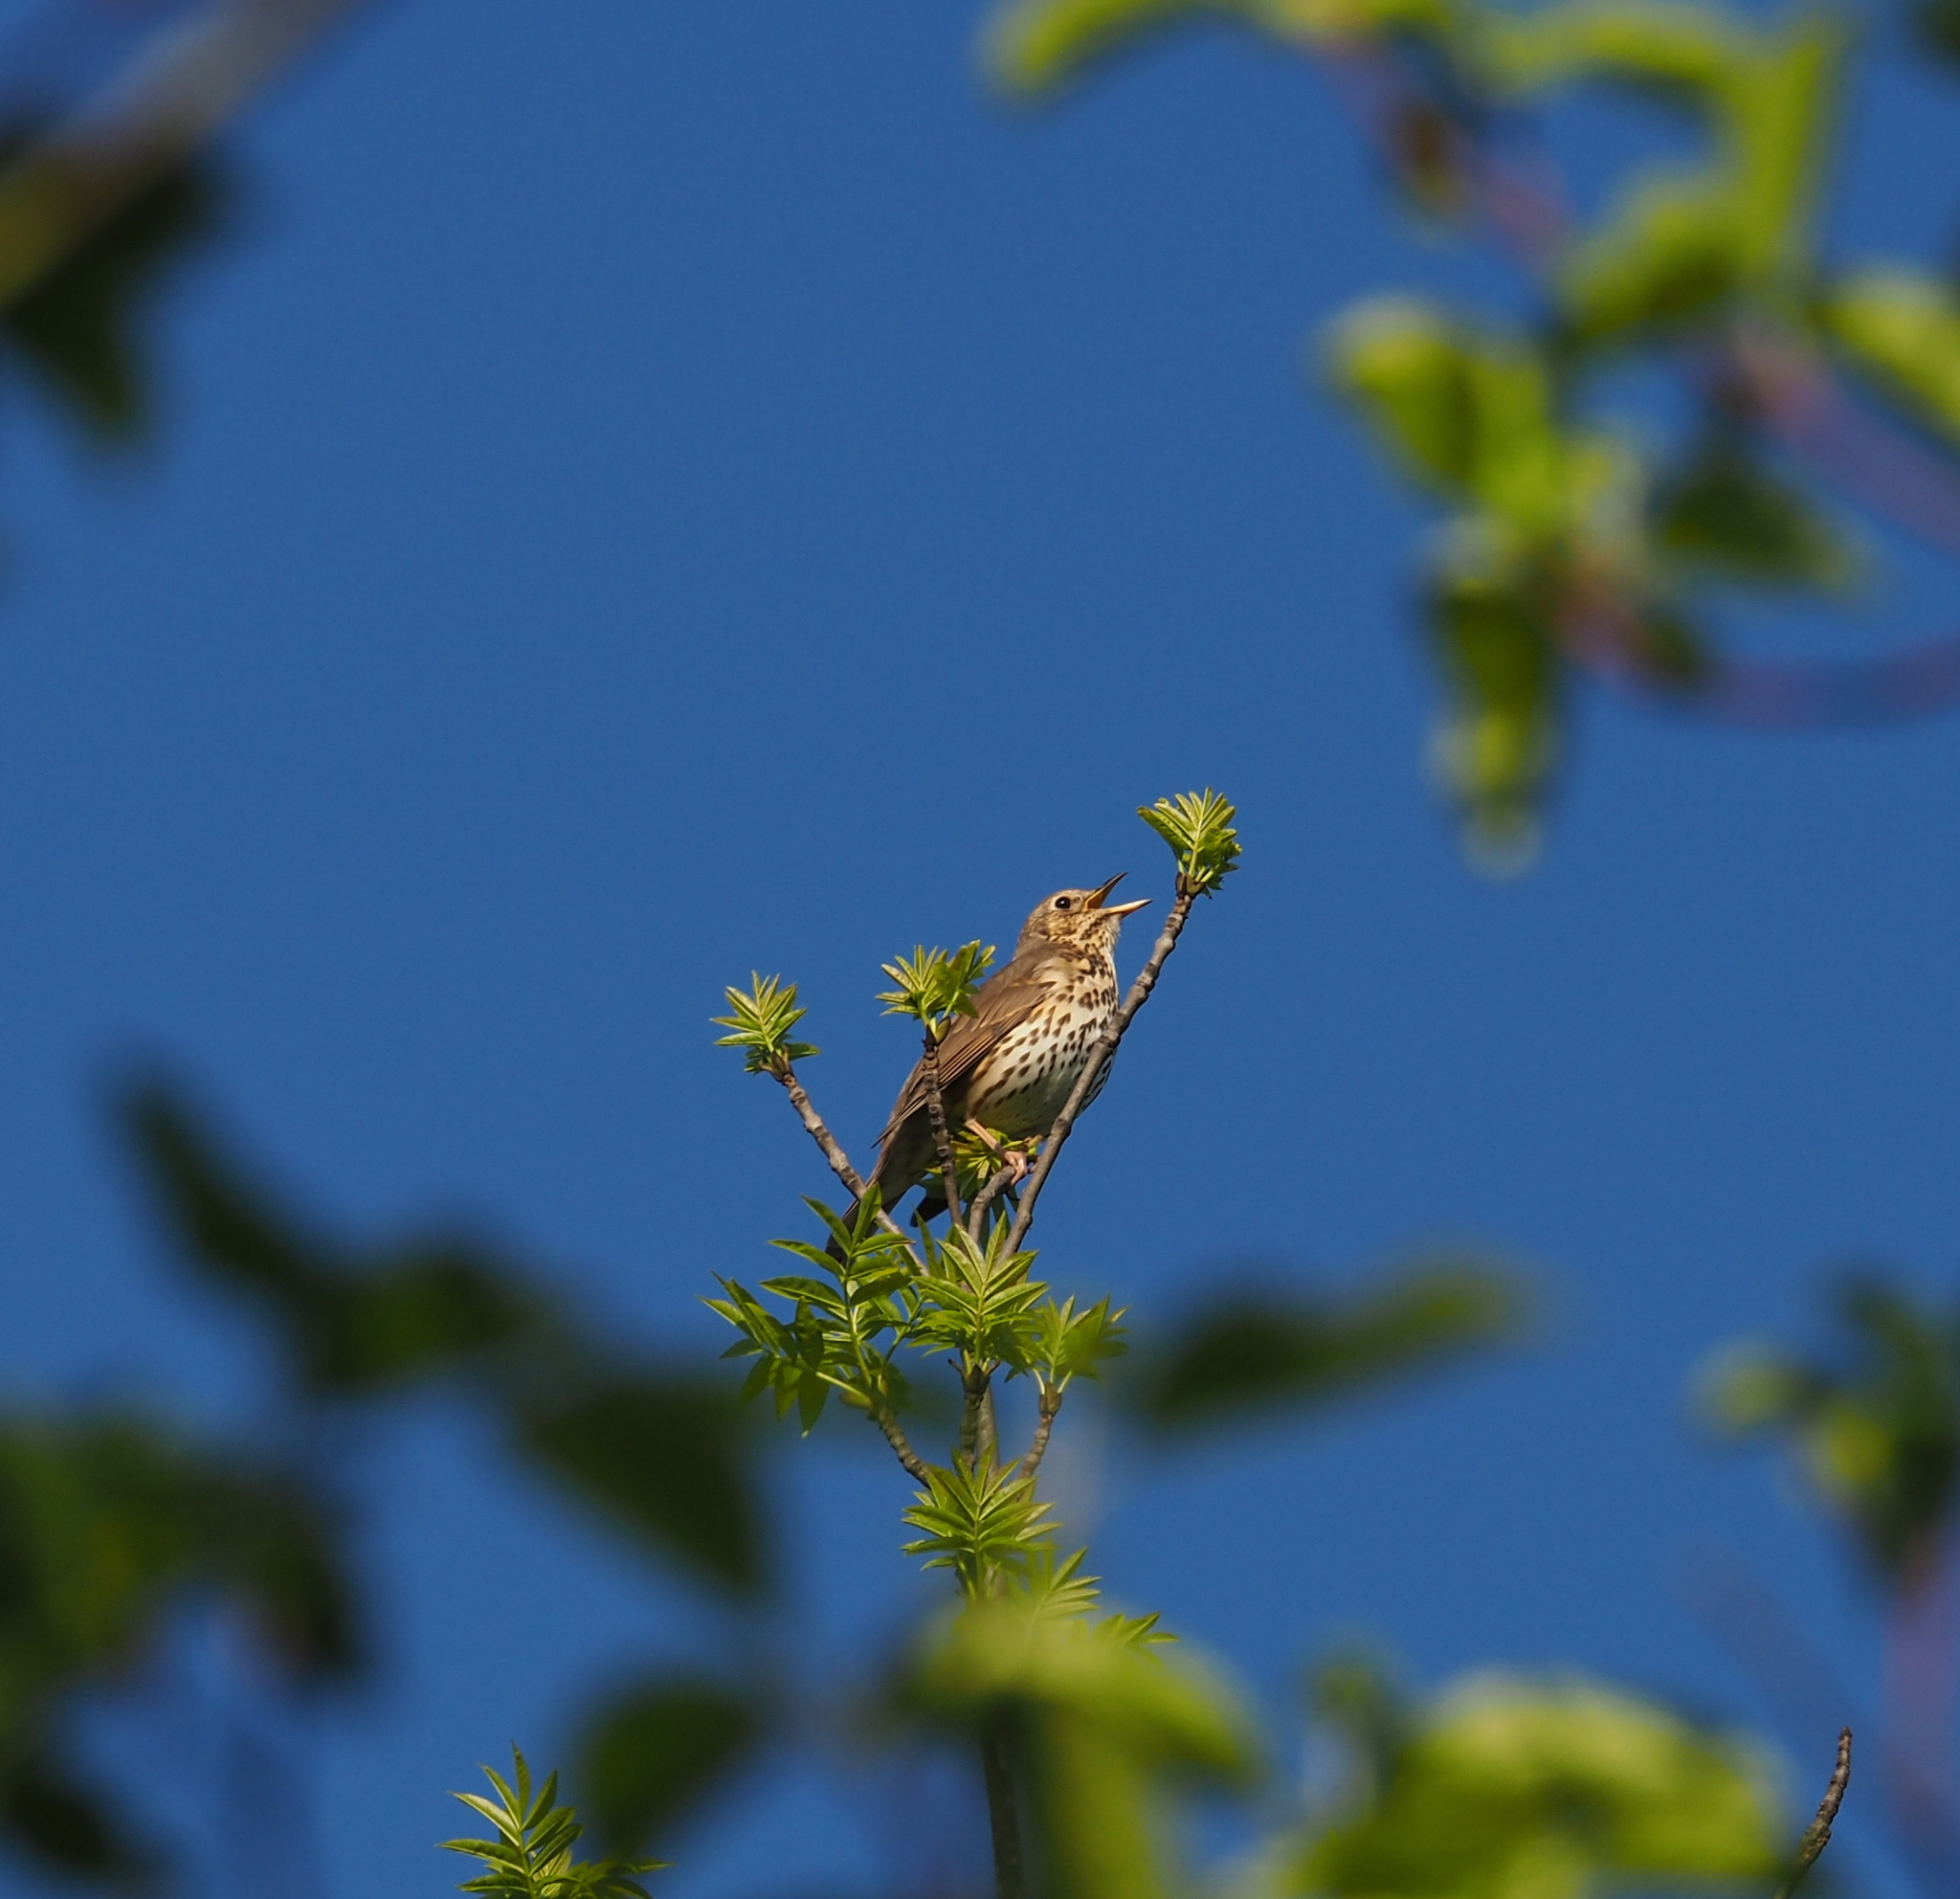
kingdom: Animalia
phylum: Chordata
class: Aves
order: Passeriformes
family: Turdidae
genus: Turdus
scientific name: Turdus philomelos
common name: Song thrush
